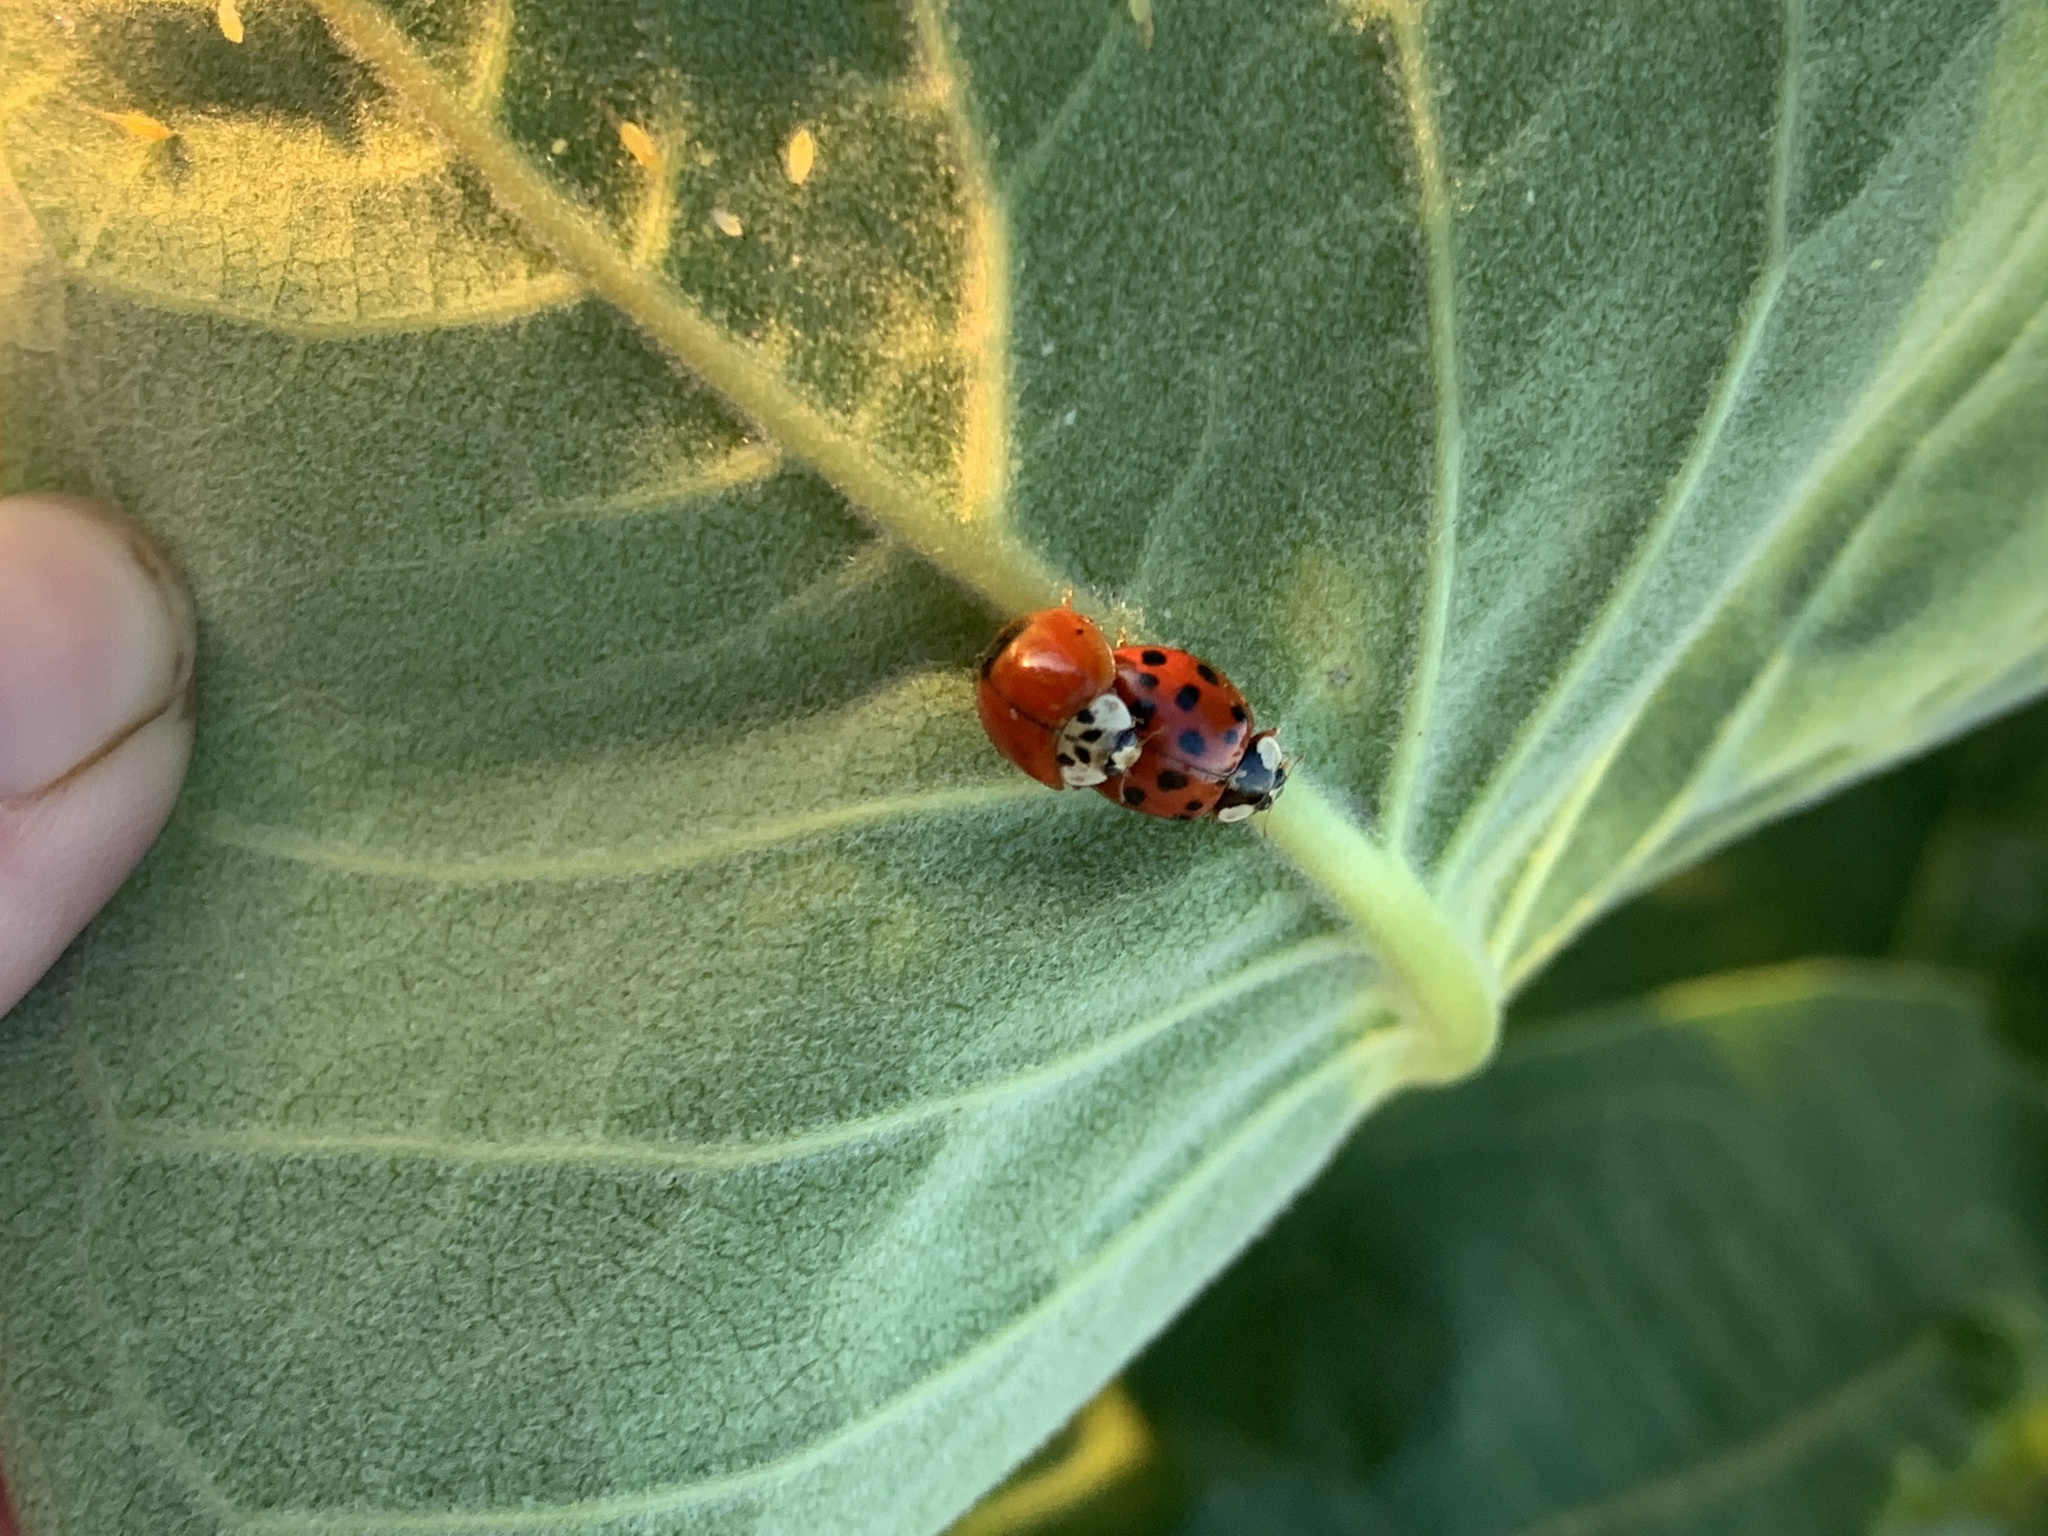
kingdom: Animalia
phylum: Arthropoda
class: Insecta
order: Coleoptera
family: Coccinellidae
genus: Harmonia
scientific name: Harmonia axyridis
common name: Harlequin ladybird
